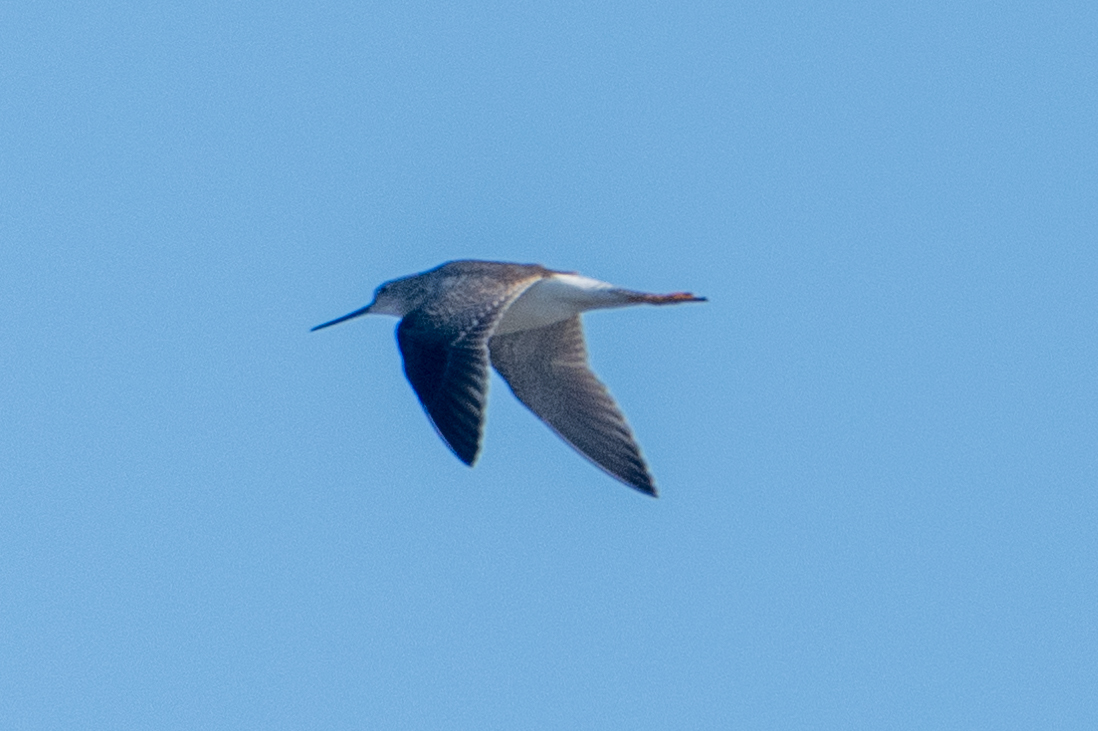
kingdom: Animalia
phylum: Chordata
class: Aves
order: Charadriiformes
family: Scolopacidae
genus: Tringa
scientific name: Tringa melanoleuca
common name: Greater yellowlegs
